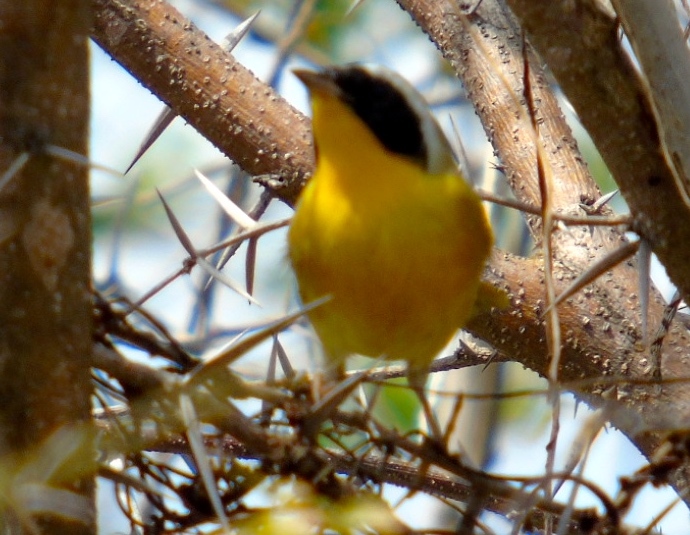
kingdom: Animalia
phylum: Chordata
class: Aves
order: Passeriformes
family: Parulidae
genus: Geothlypis
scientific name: Geothlypis trichas
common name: Common yellowthroat
